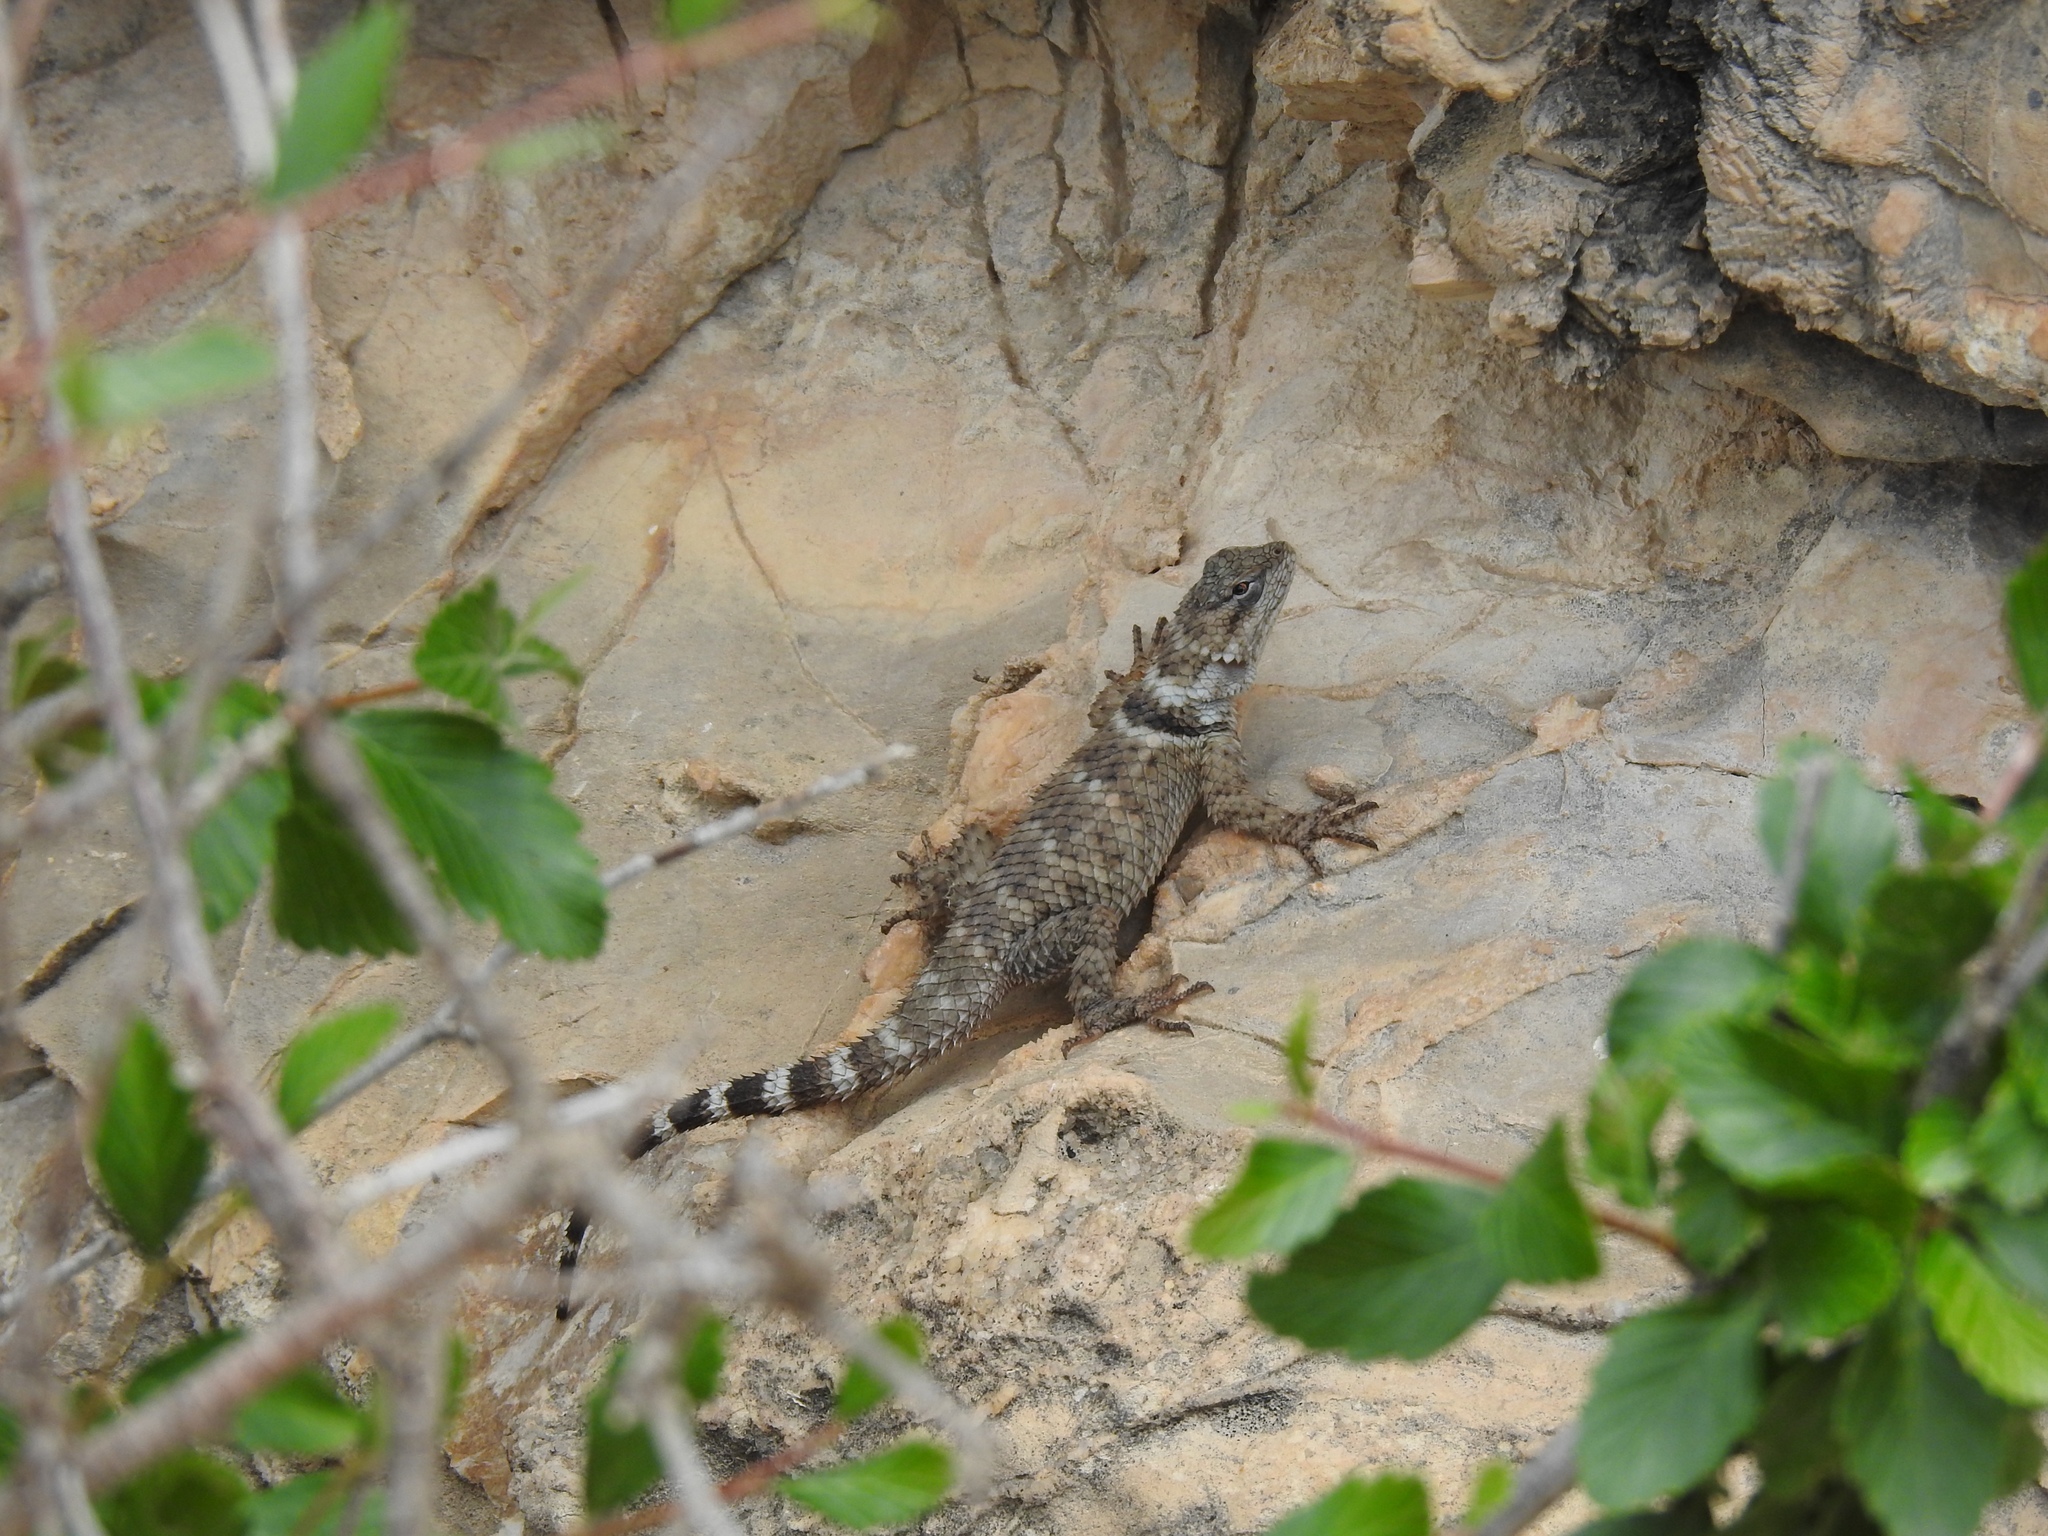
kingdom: Animalia
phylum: Chordata
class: Squamata
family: Phrynosomatidae
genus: Sceloporus
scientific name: Sceloporus poinsettii
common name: Crevice spiny lizard
